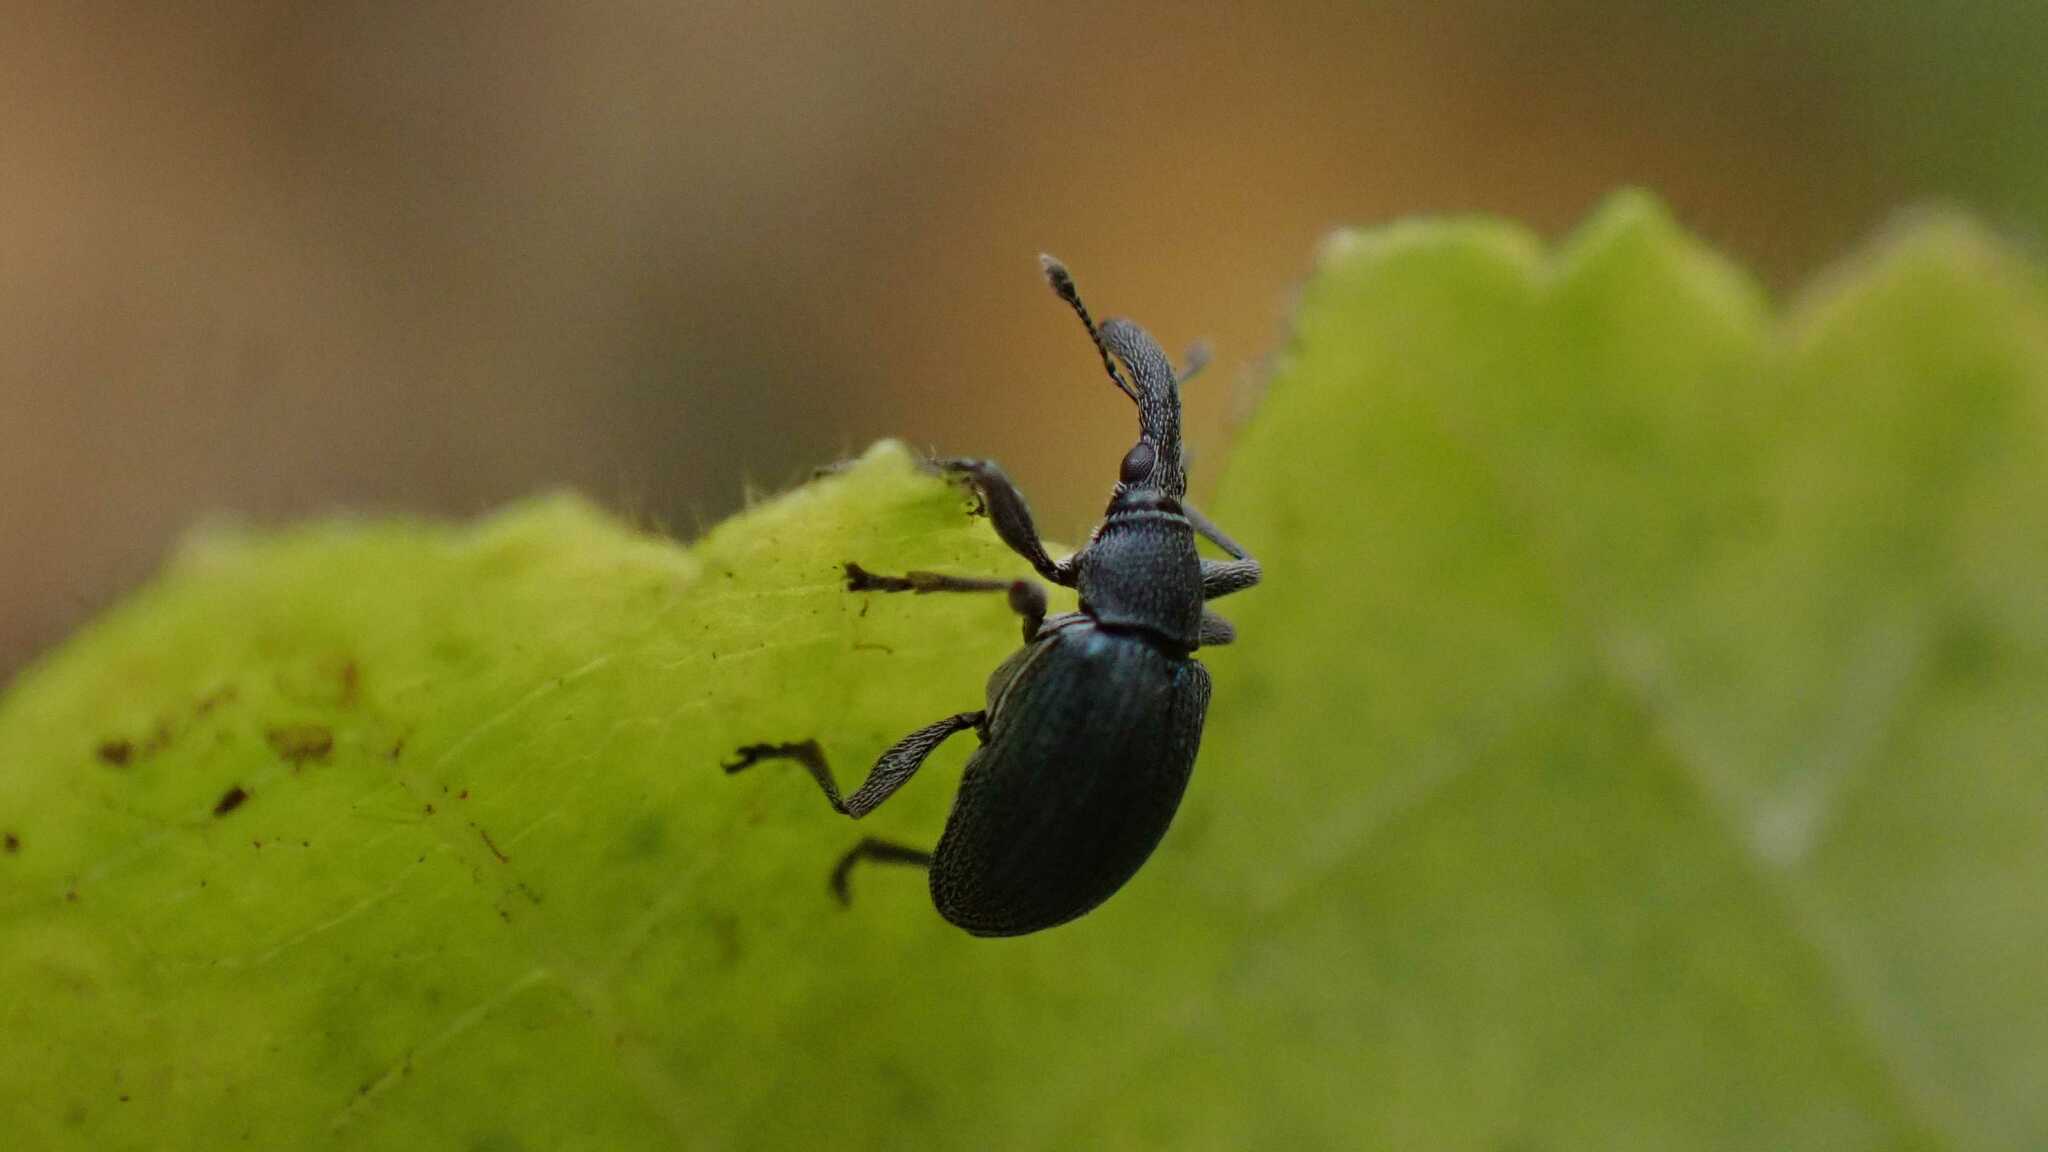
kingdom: Animalia
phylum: Arthropoda
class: Insecta
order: Coleoptera
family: Brentidae
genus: Alocentron
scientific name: Alocentron curvirostre
